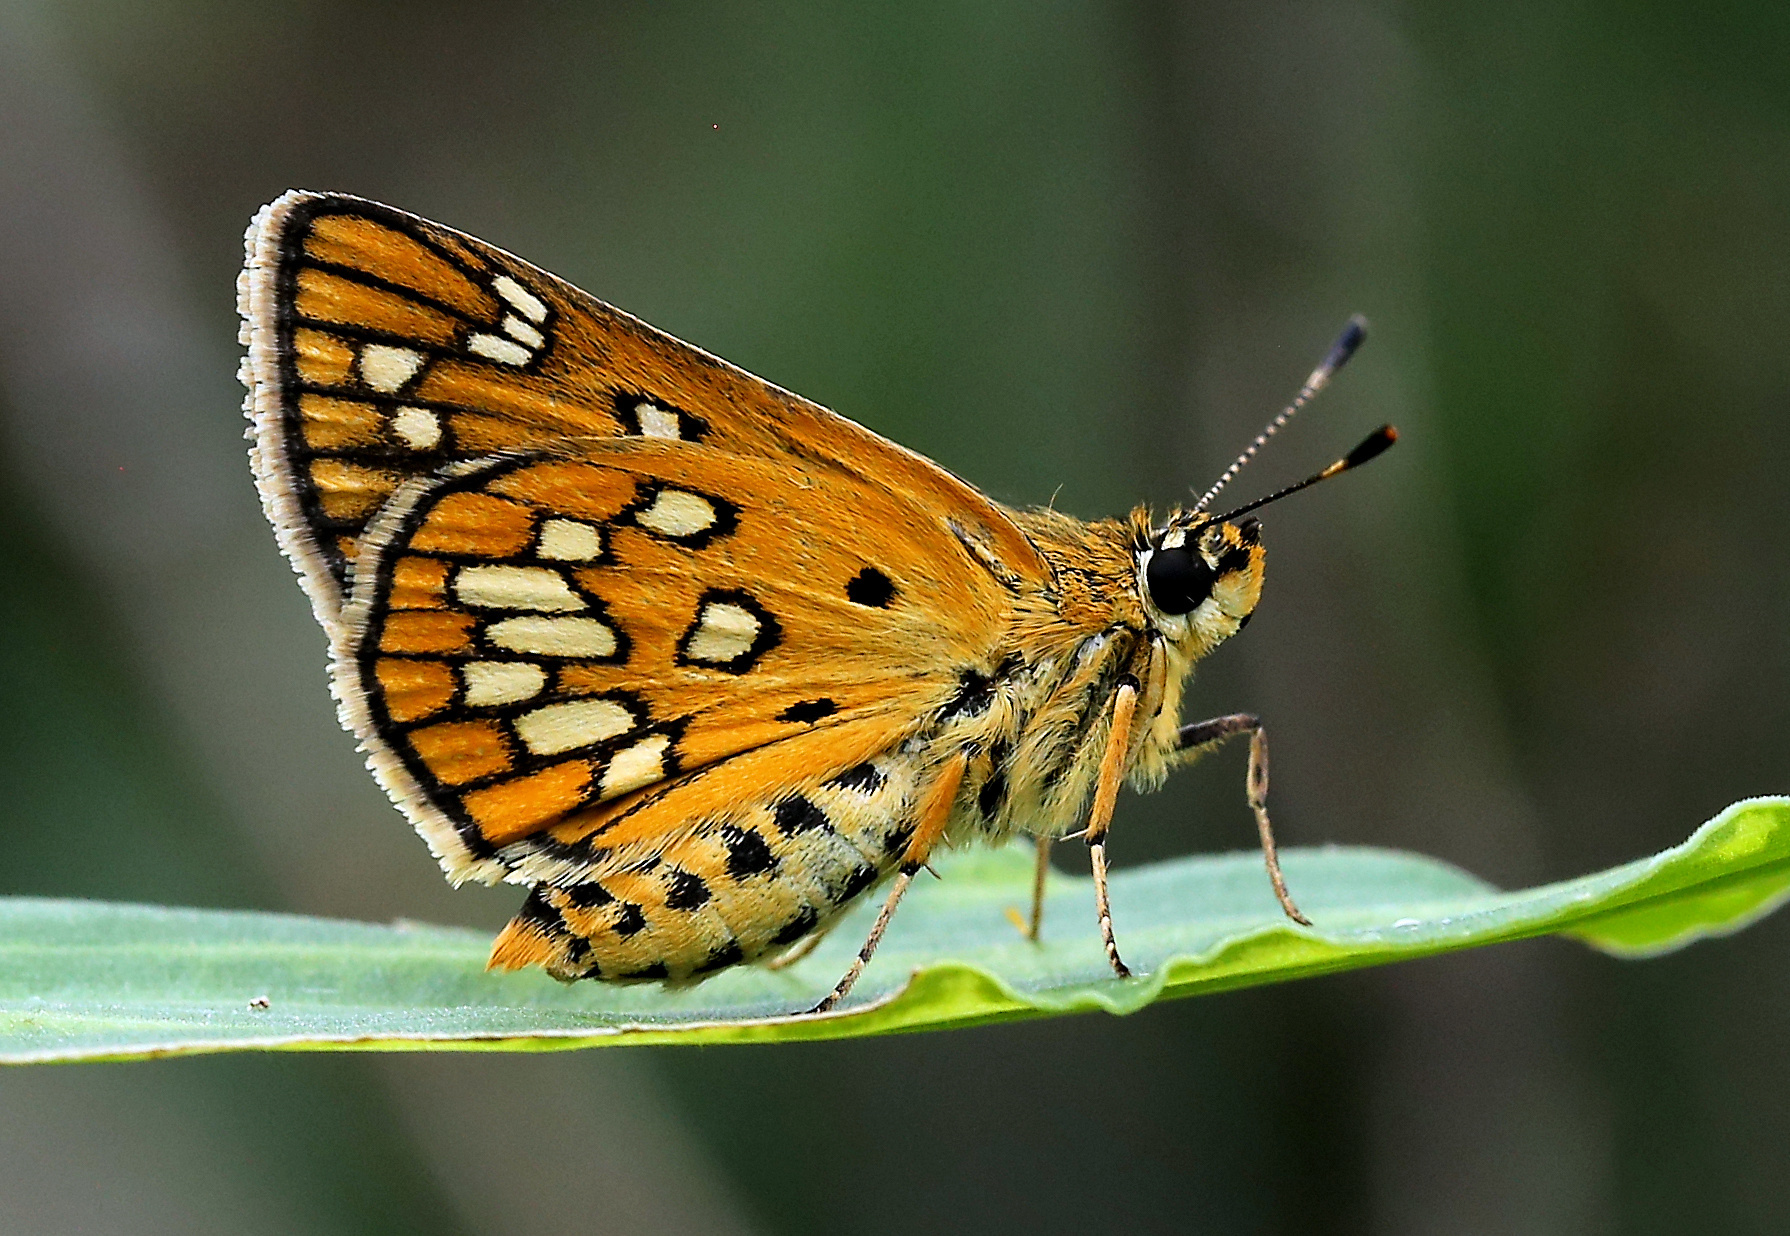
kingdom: Animalia
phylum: Arthropoda
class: Insecta
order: Lepidoptera
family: Hesperiidae
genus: Dotta
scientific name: Dotta
